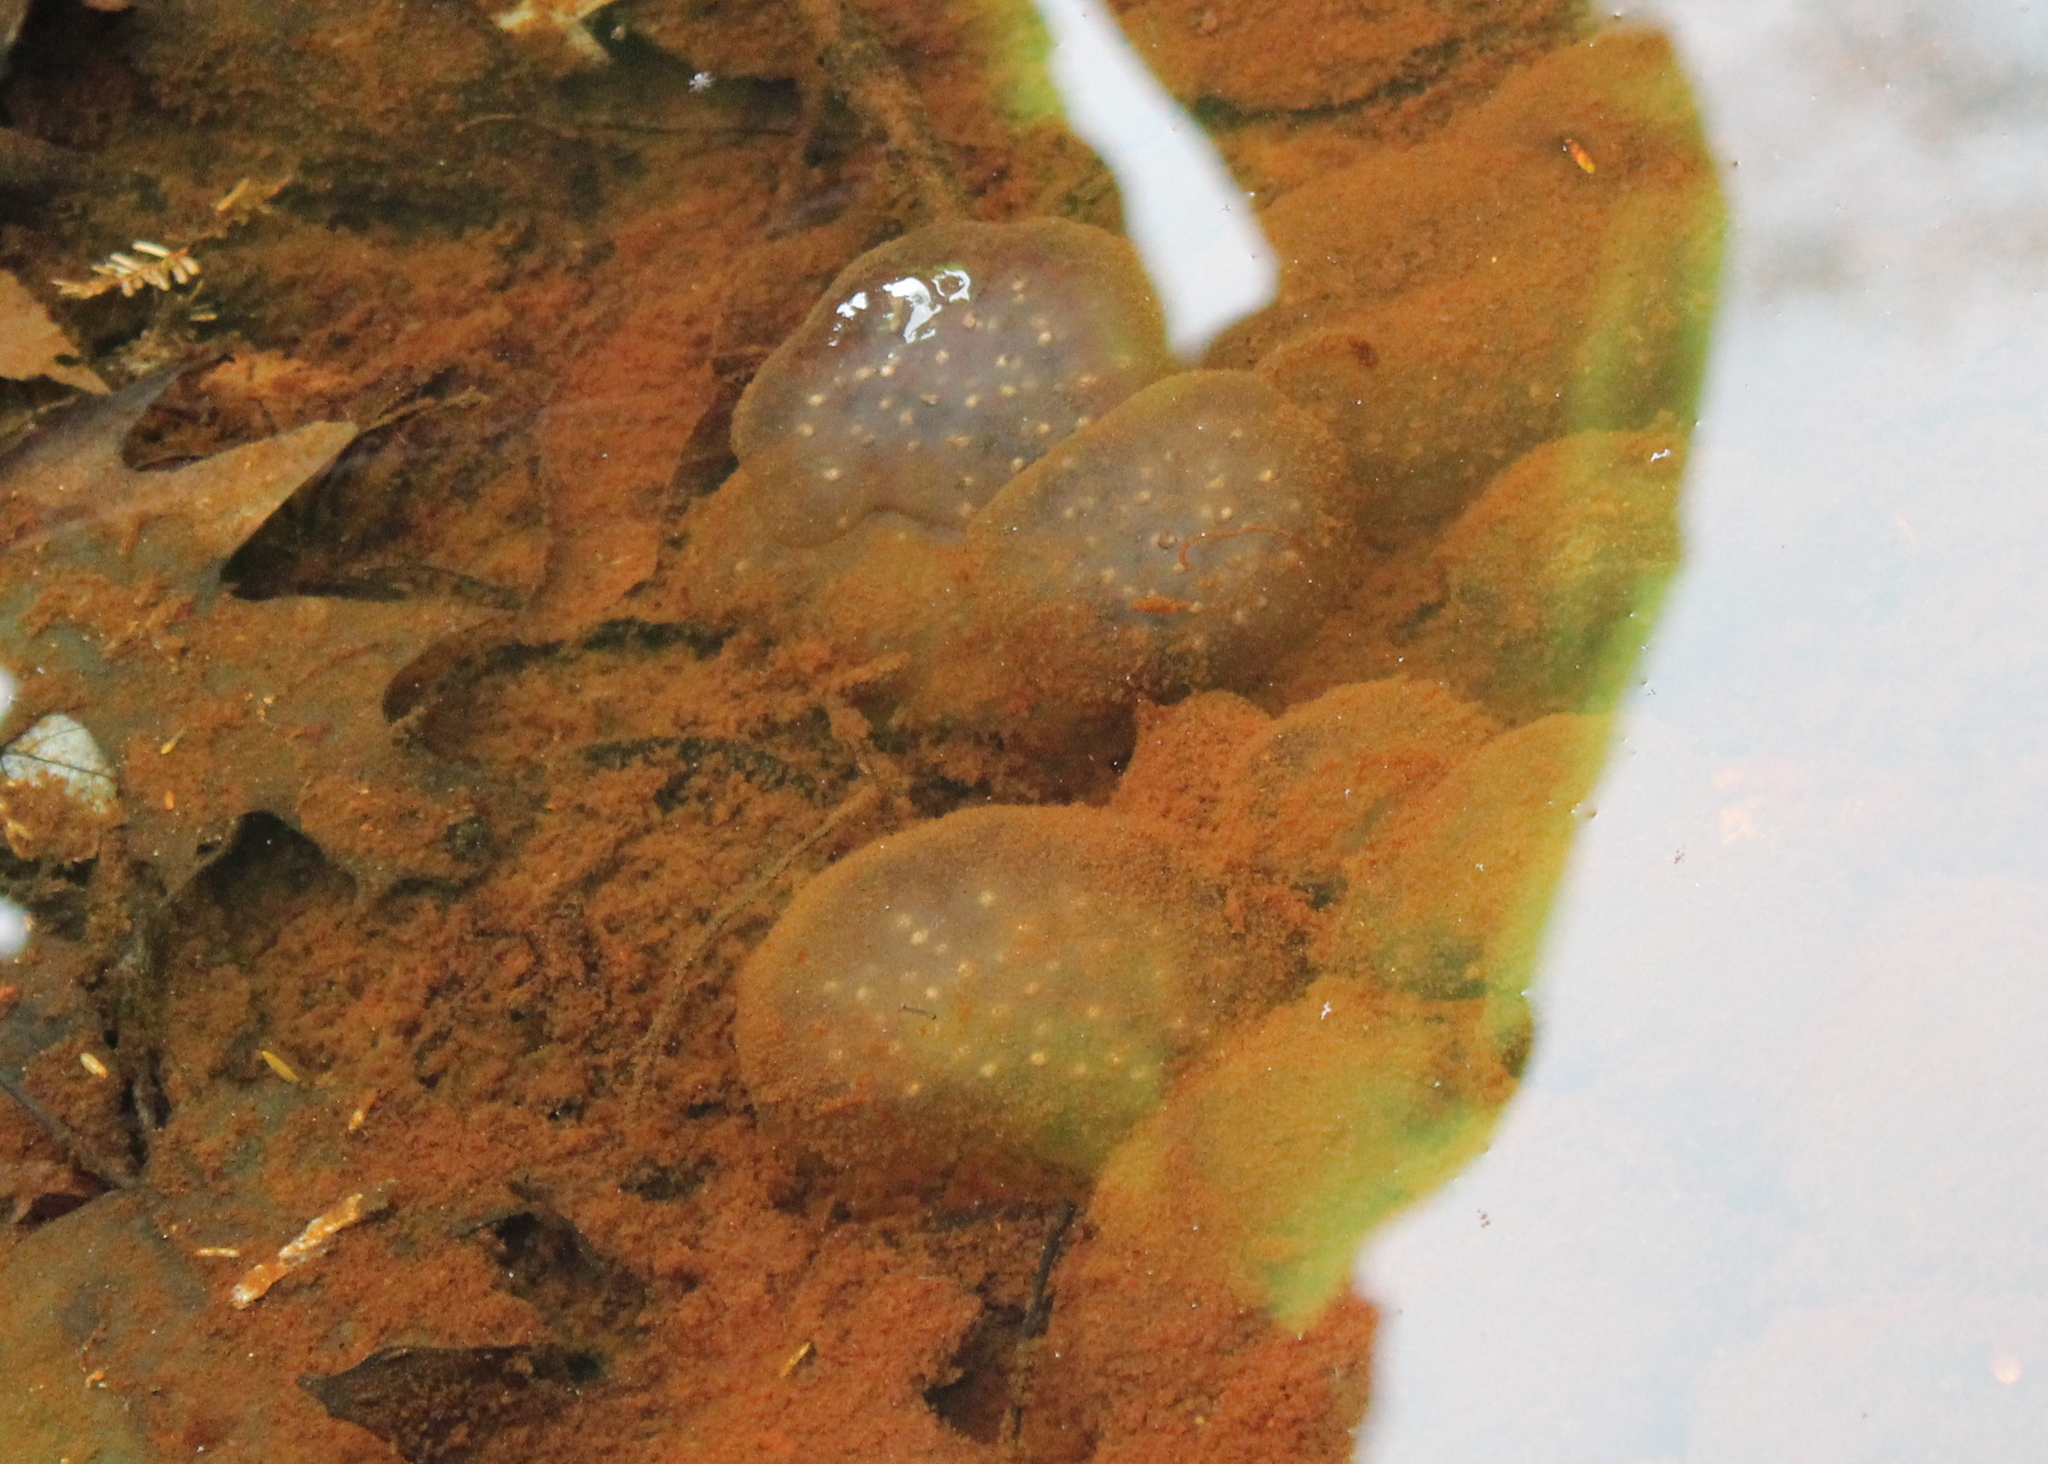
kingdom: Animalia
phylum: Chordata
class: Amphibia
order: Caudata
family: Ambystomatidae
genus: Ambystoma
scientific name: Ambystoma maculatum
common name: Spotted salamander
